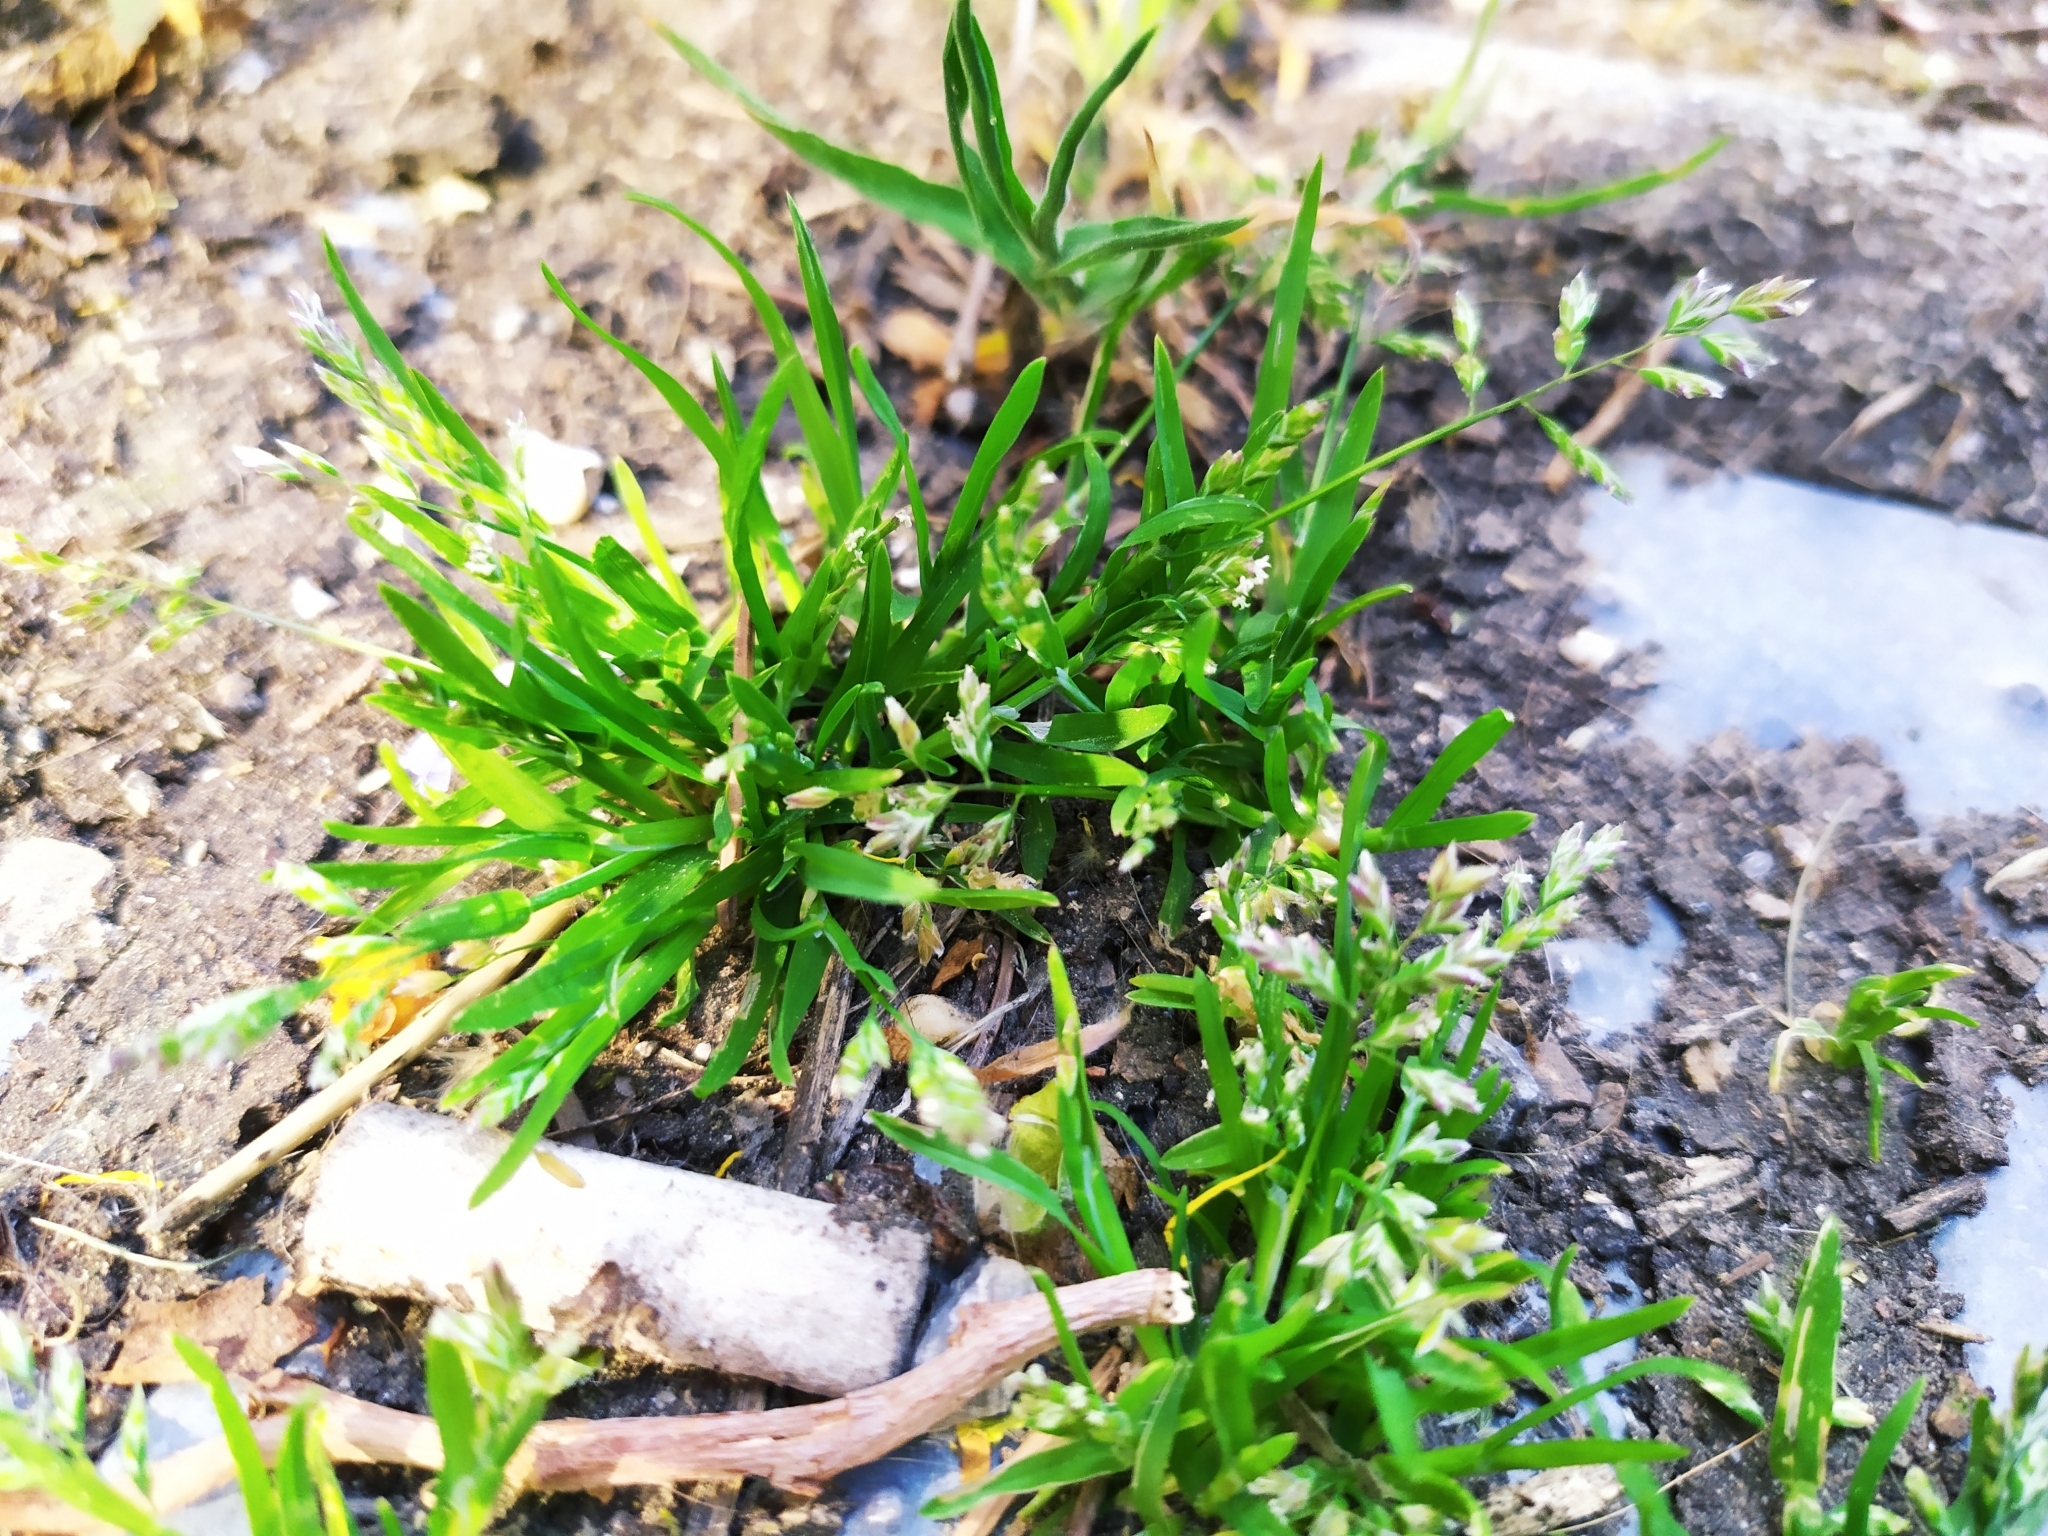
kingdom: Plantae
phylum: Tracheophyta
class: Liliopsida
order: Poales
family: Poaceae
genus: Poa
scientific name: Poa annua
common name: Annual bluegrass
